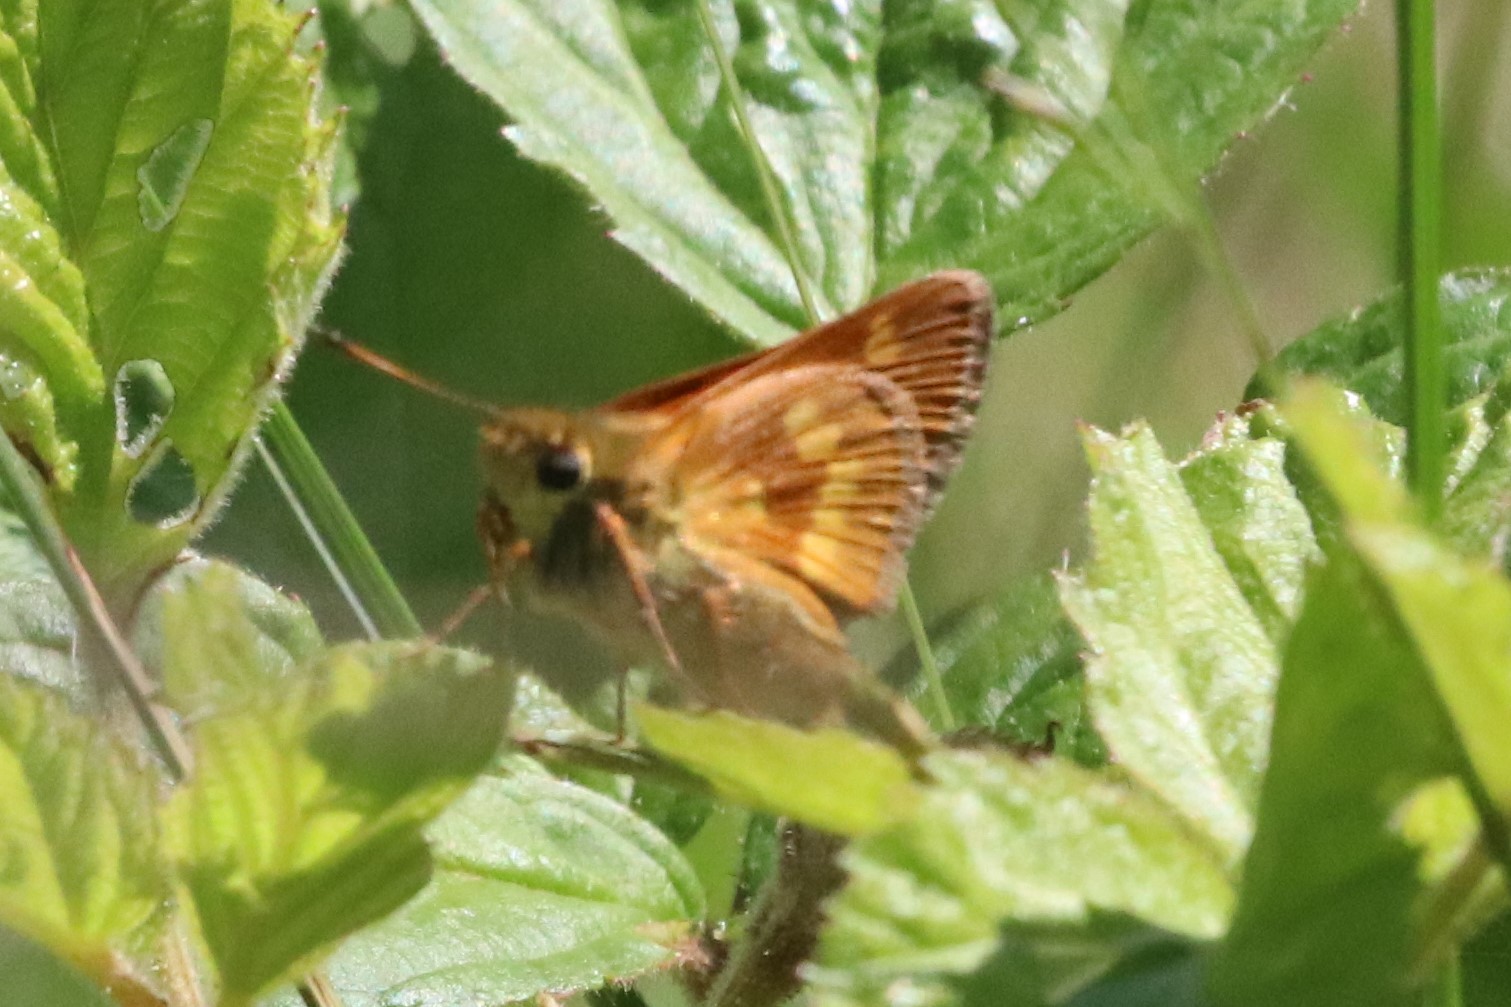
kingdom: Animalia
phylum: Arthropoda
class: Insecta
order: Lepidoptera
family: Hesperiidae
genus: Polites
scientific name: Polites mystic
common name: Long dash
